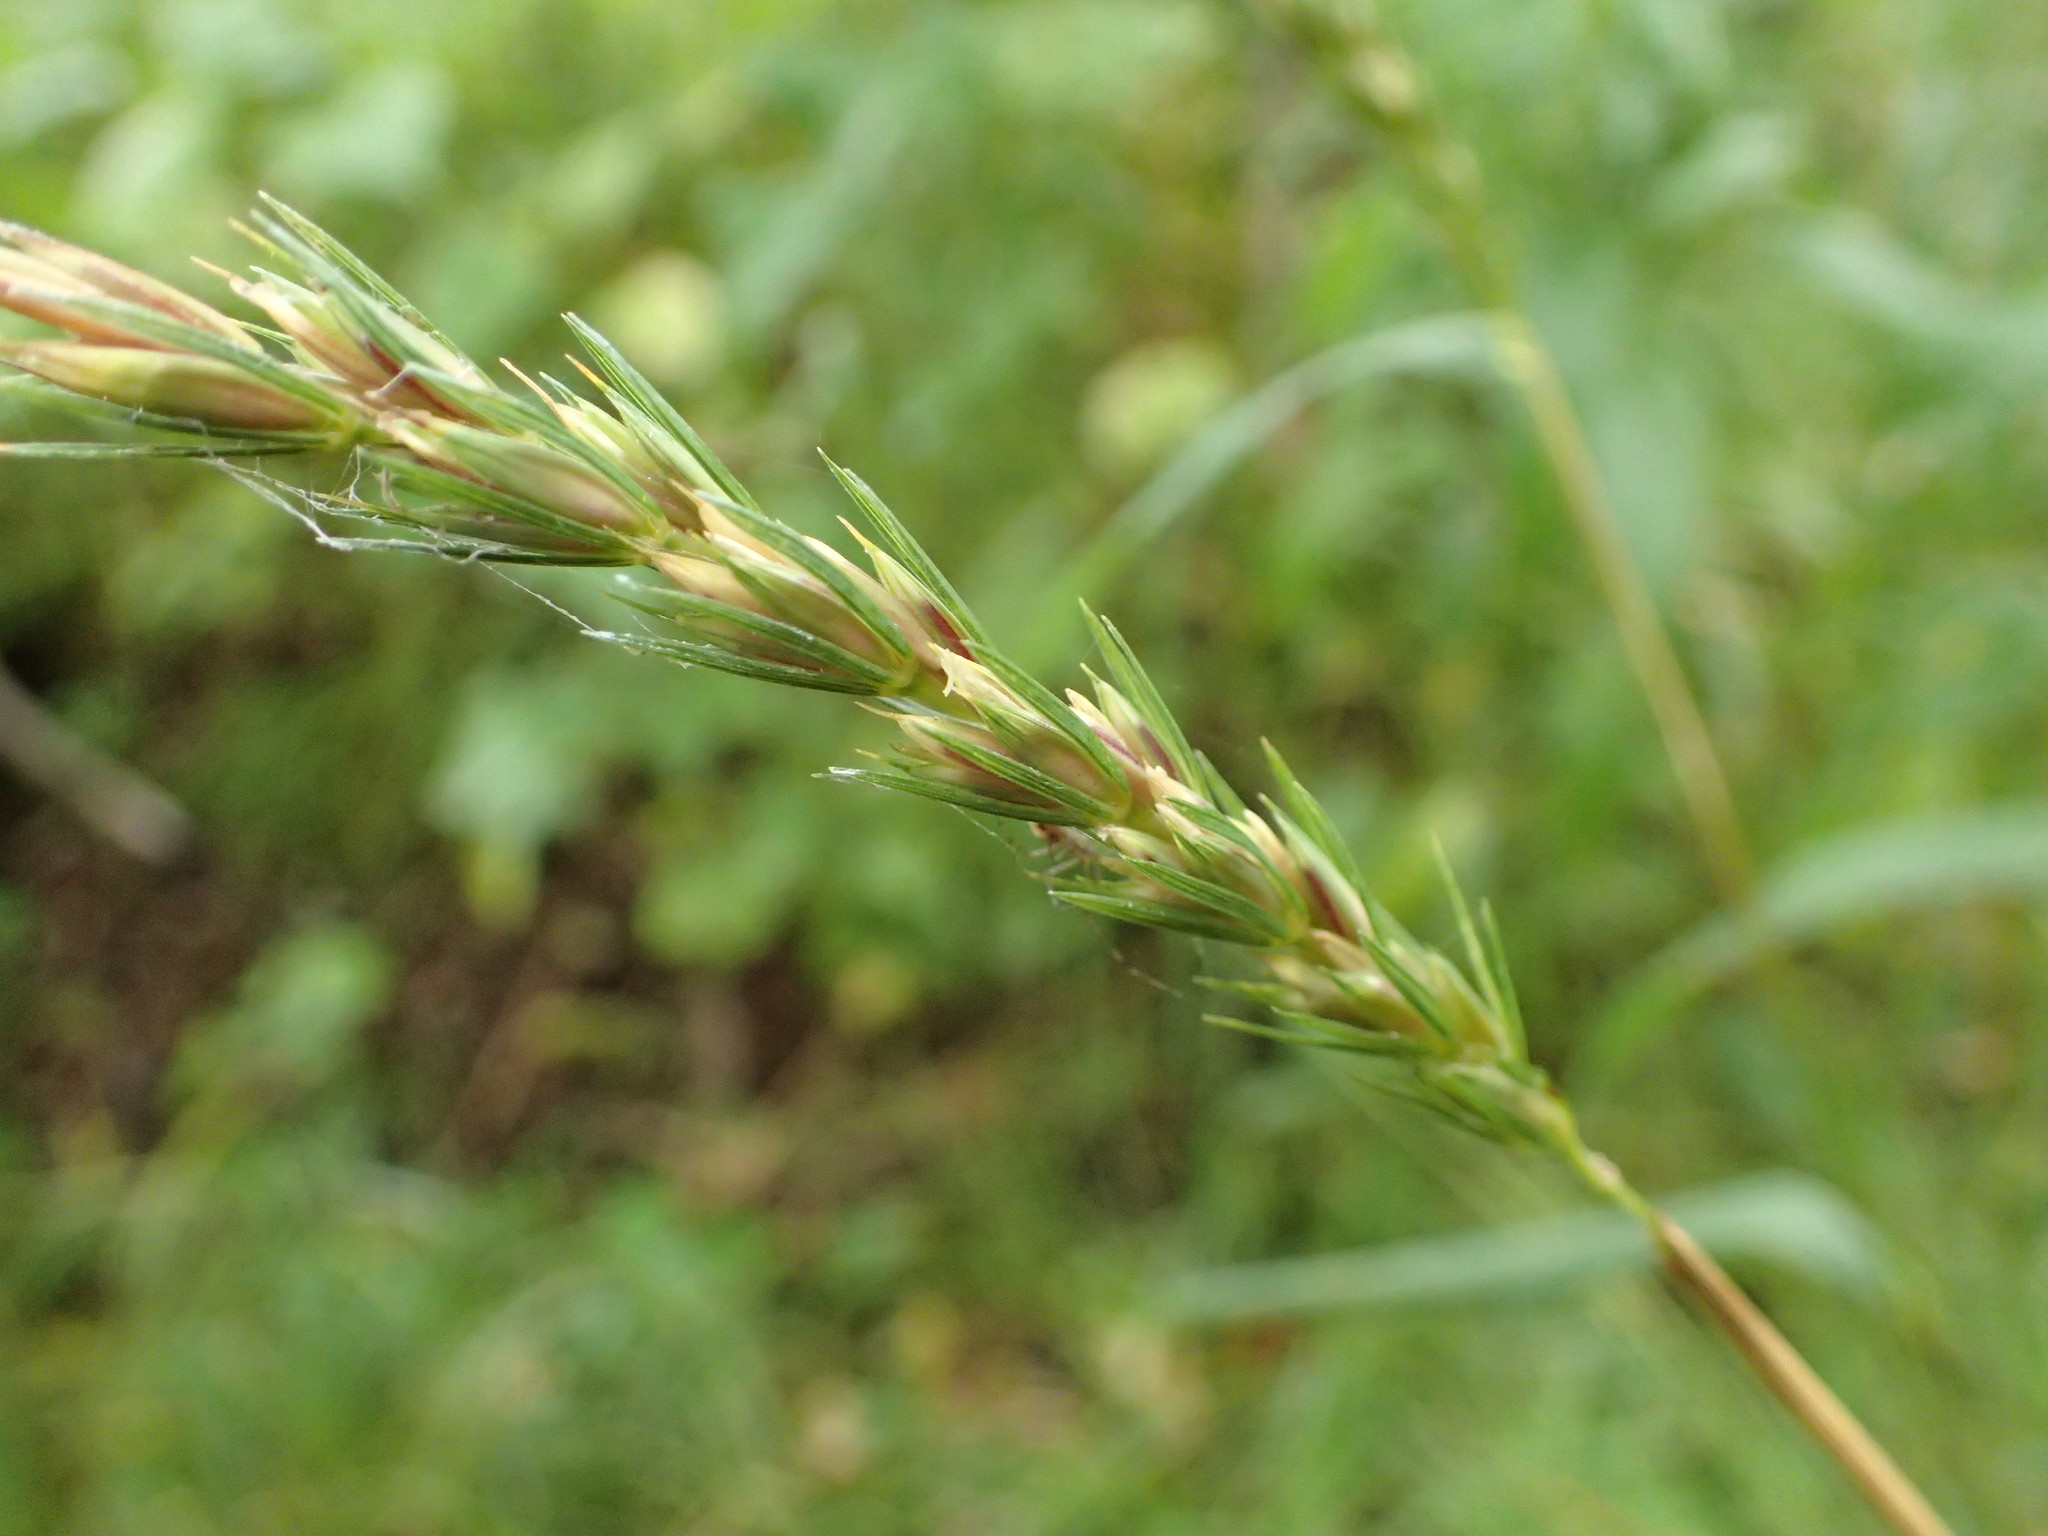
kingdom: Plantae
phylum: Tracheophyta
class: Liliopsida
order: Poales
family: Poaceae
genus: Elymus
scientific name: Elymus curvatus
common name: Awnless wild rye
